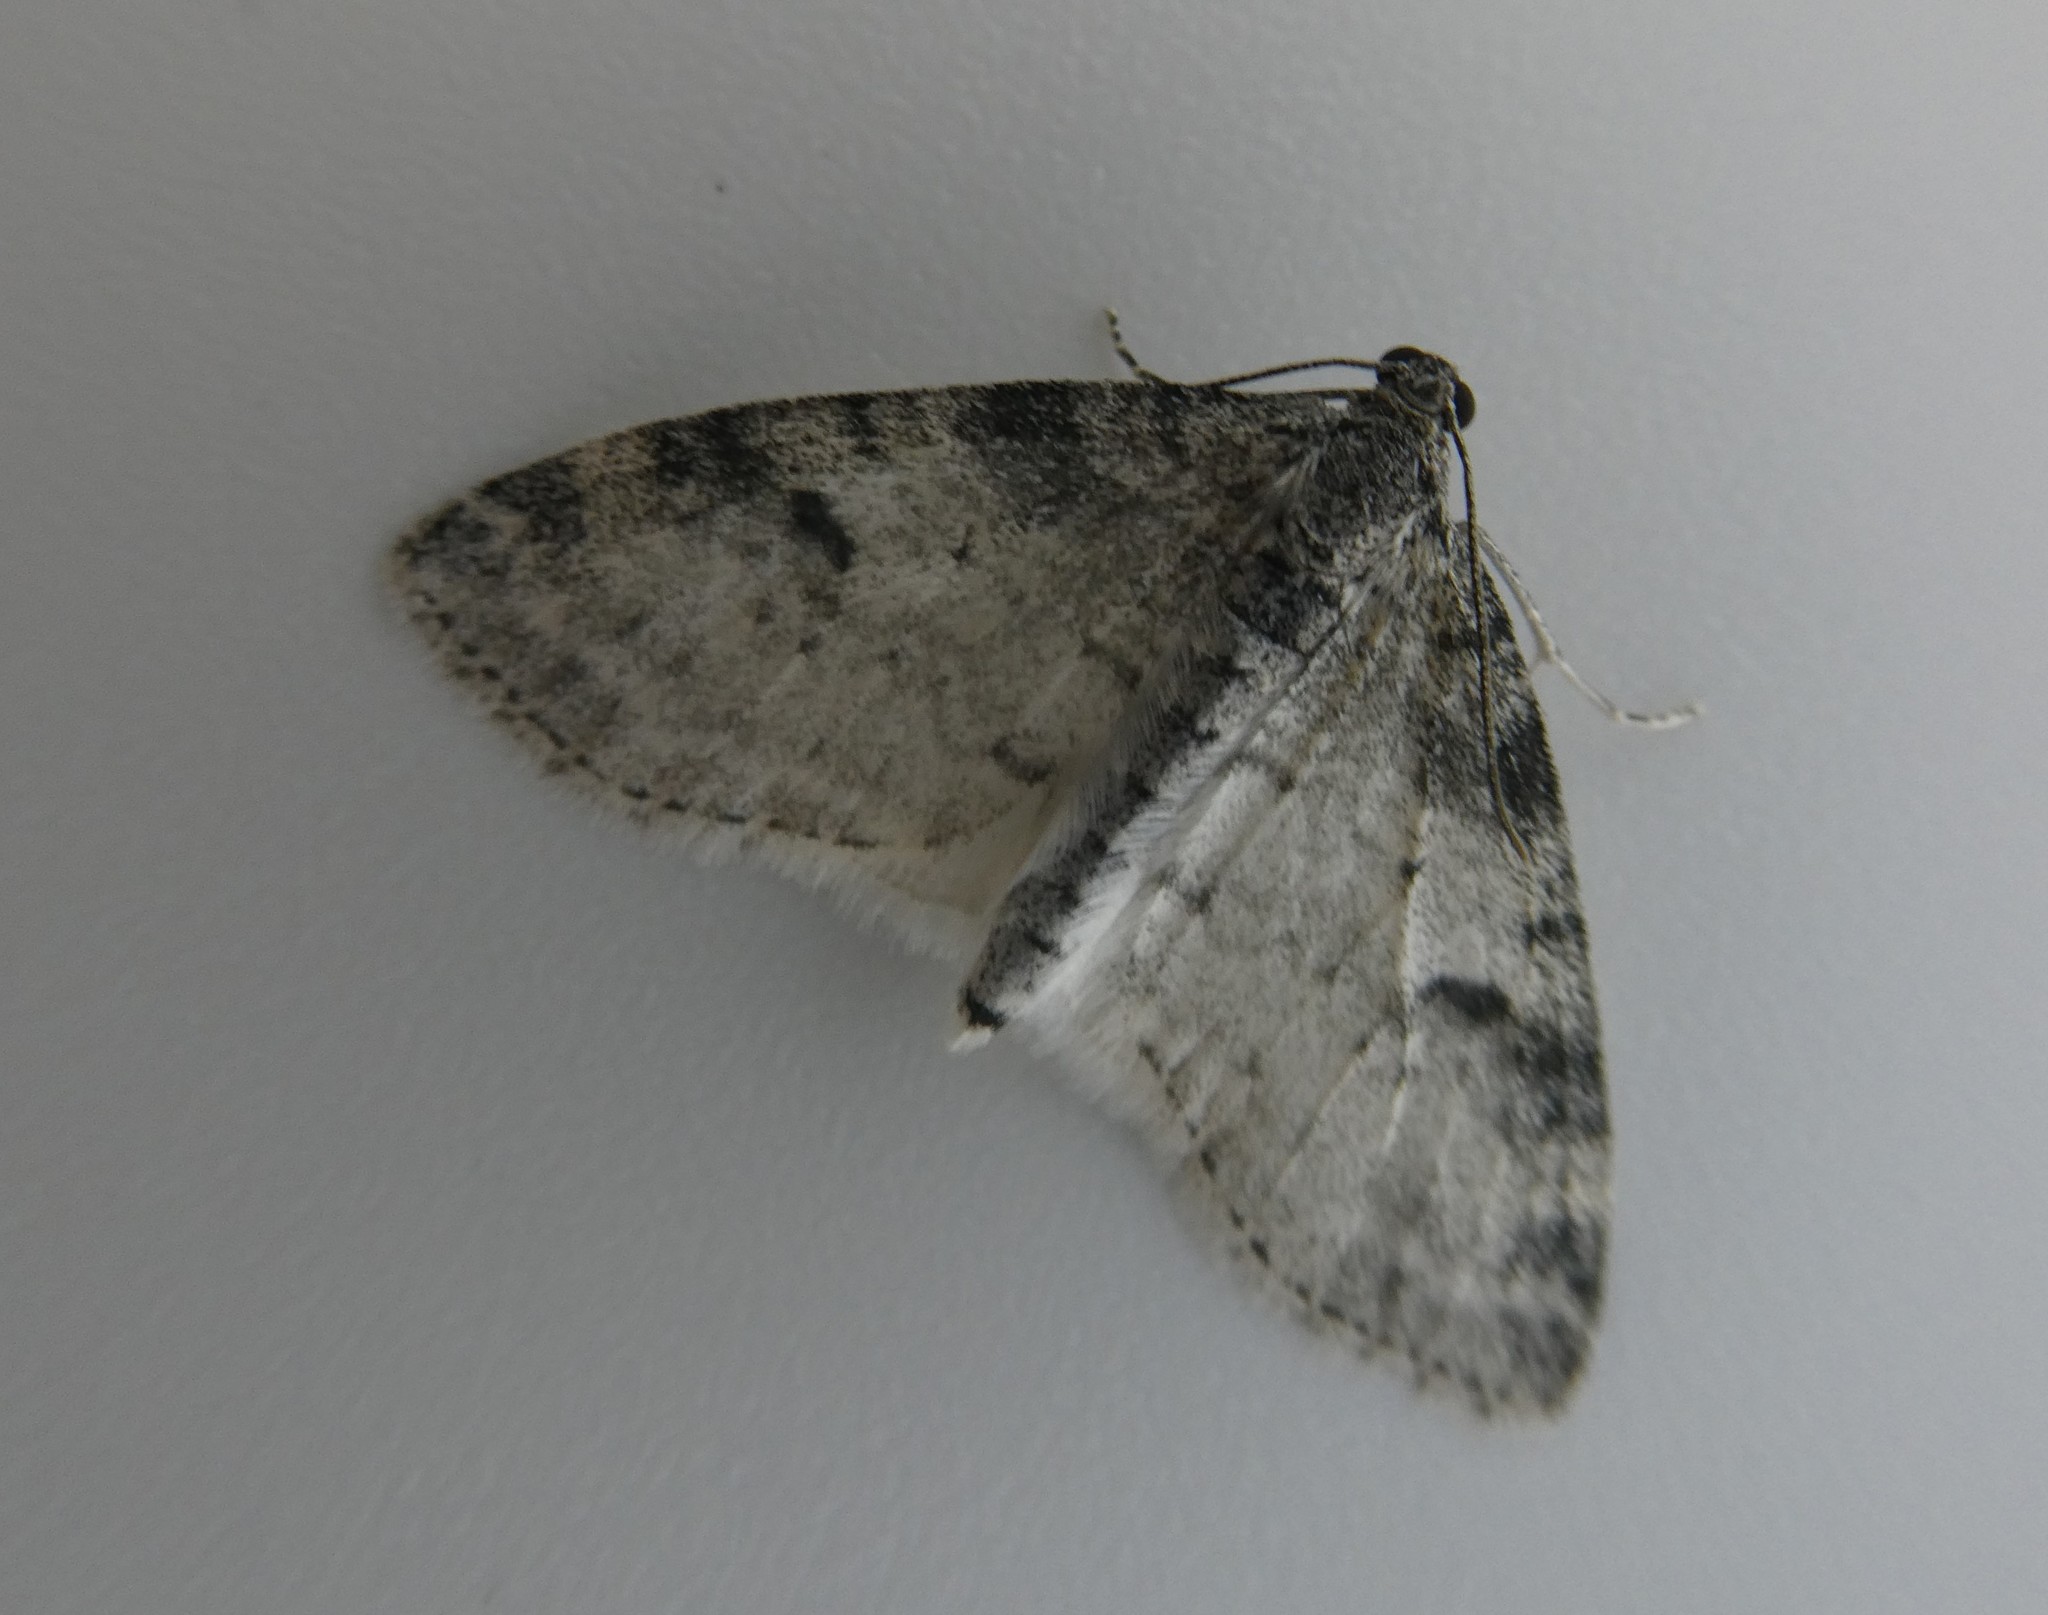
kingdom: Animalia
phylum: Arthropoda
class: Insecta
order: Lepidoptera
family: Geometridae
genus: Lobophora
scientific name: Lobophora nivigerata
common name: Powdered bigwing
